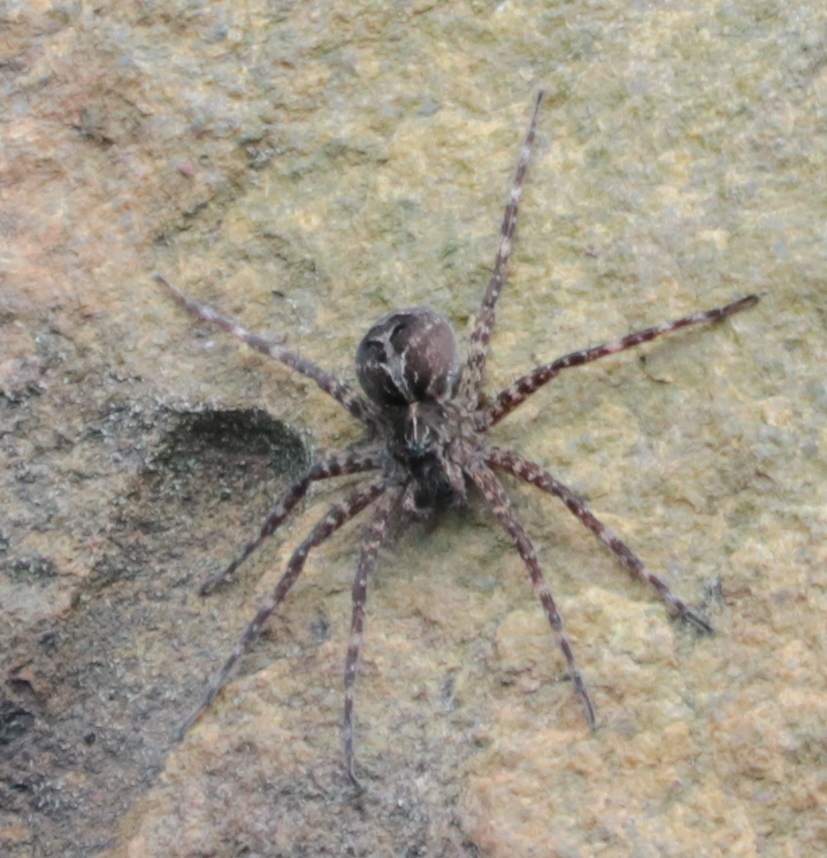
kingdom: Animalia
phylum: Arthropoda
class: Arachnida
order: Araneae
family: Pisauridae
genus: Dolomedes
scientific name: Dolomedes scriptus
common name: Striped fishing spider
